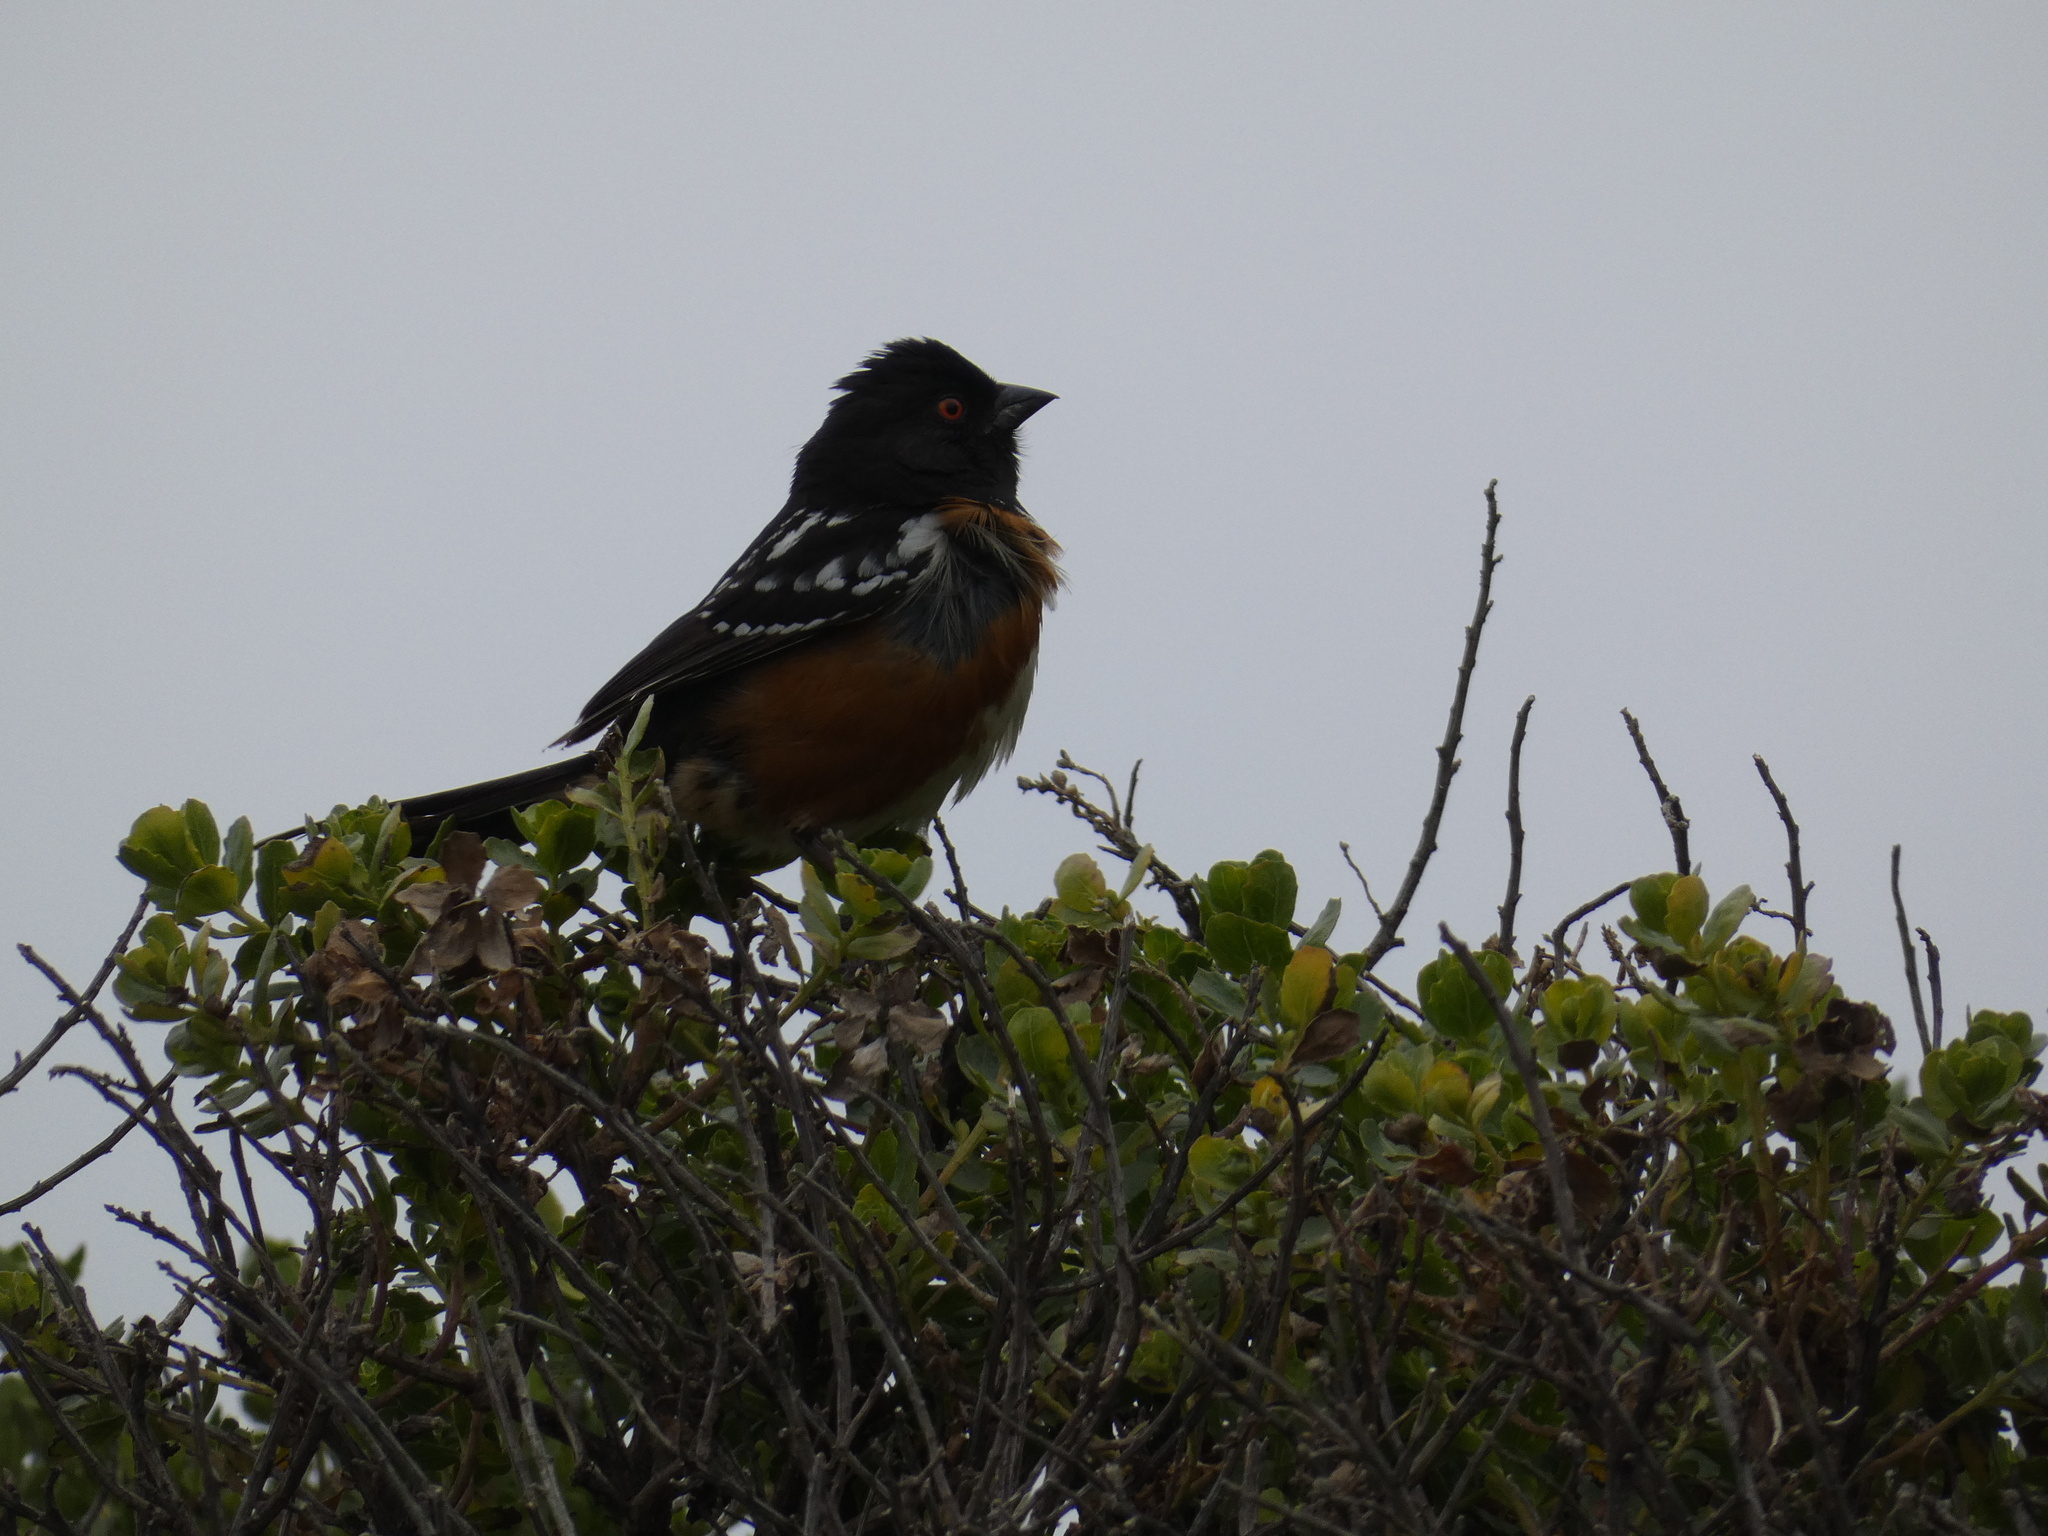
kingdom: Animalia
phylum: Chordata
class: Aves
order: Passeriformes
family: Passerellidae
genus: Pipilo
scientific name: Pipilo maculatus
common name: Spotted towhee
